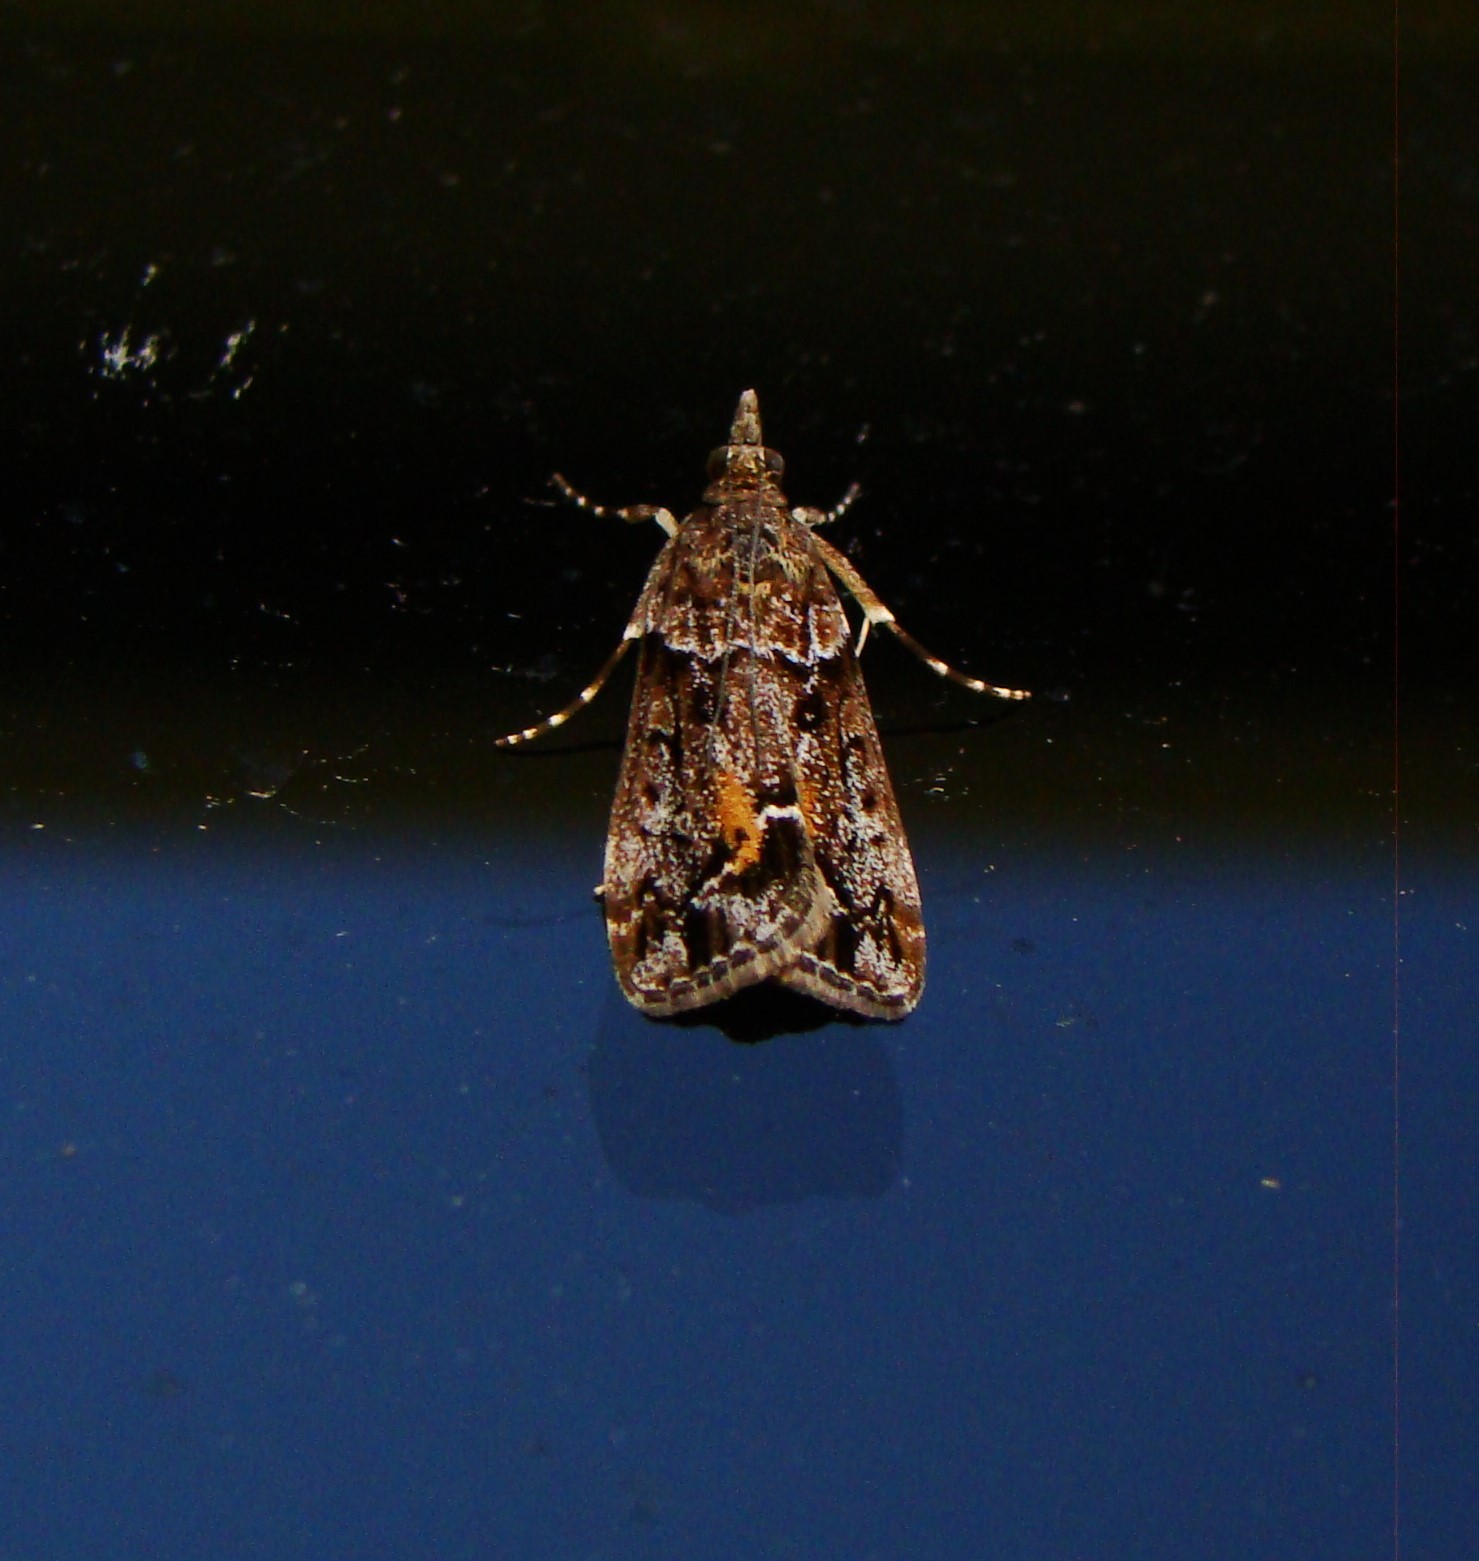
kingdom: Animalia
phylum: Arthropoda
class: Insecta
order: Lepidoptera
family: Crambidae
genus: Eudonia
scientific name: Eudonia submarginalis
